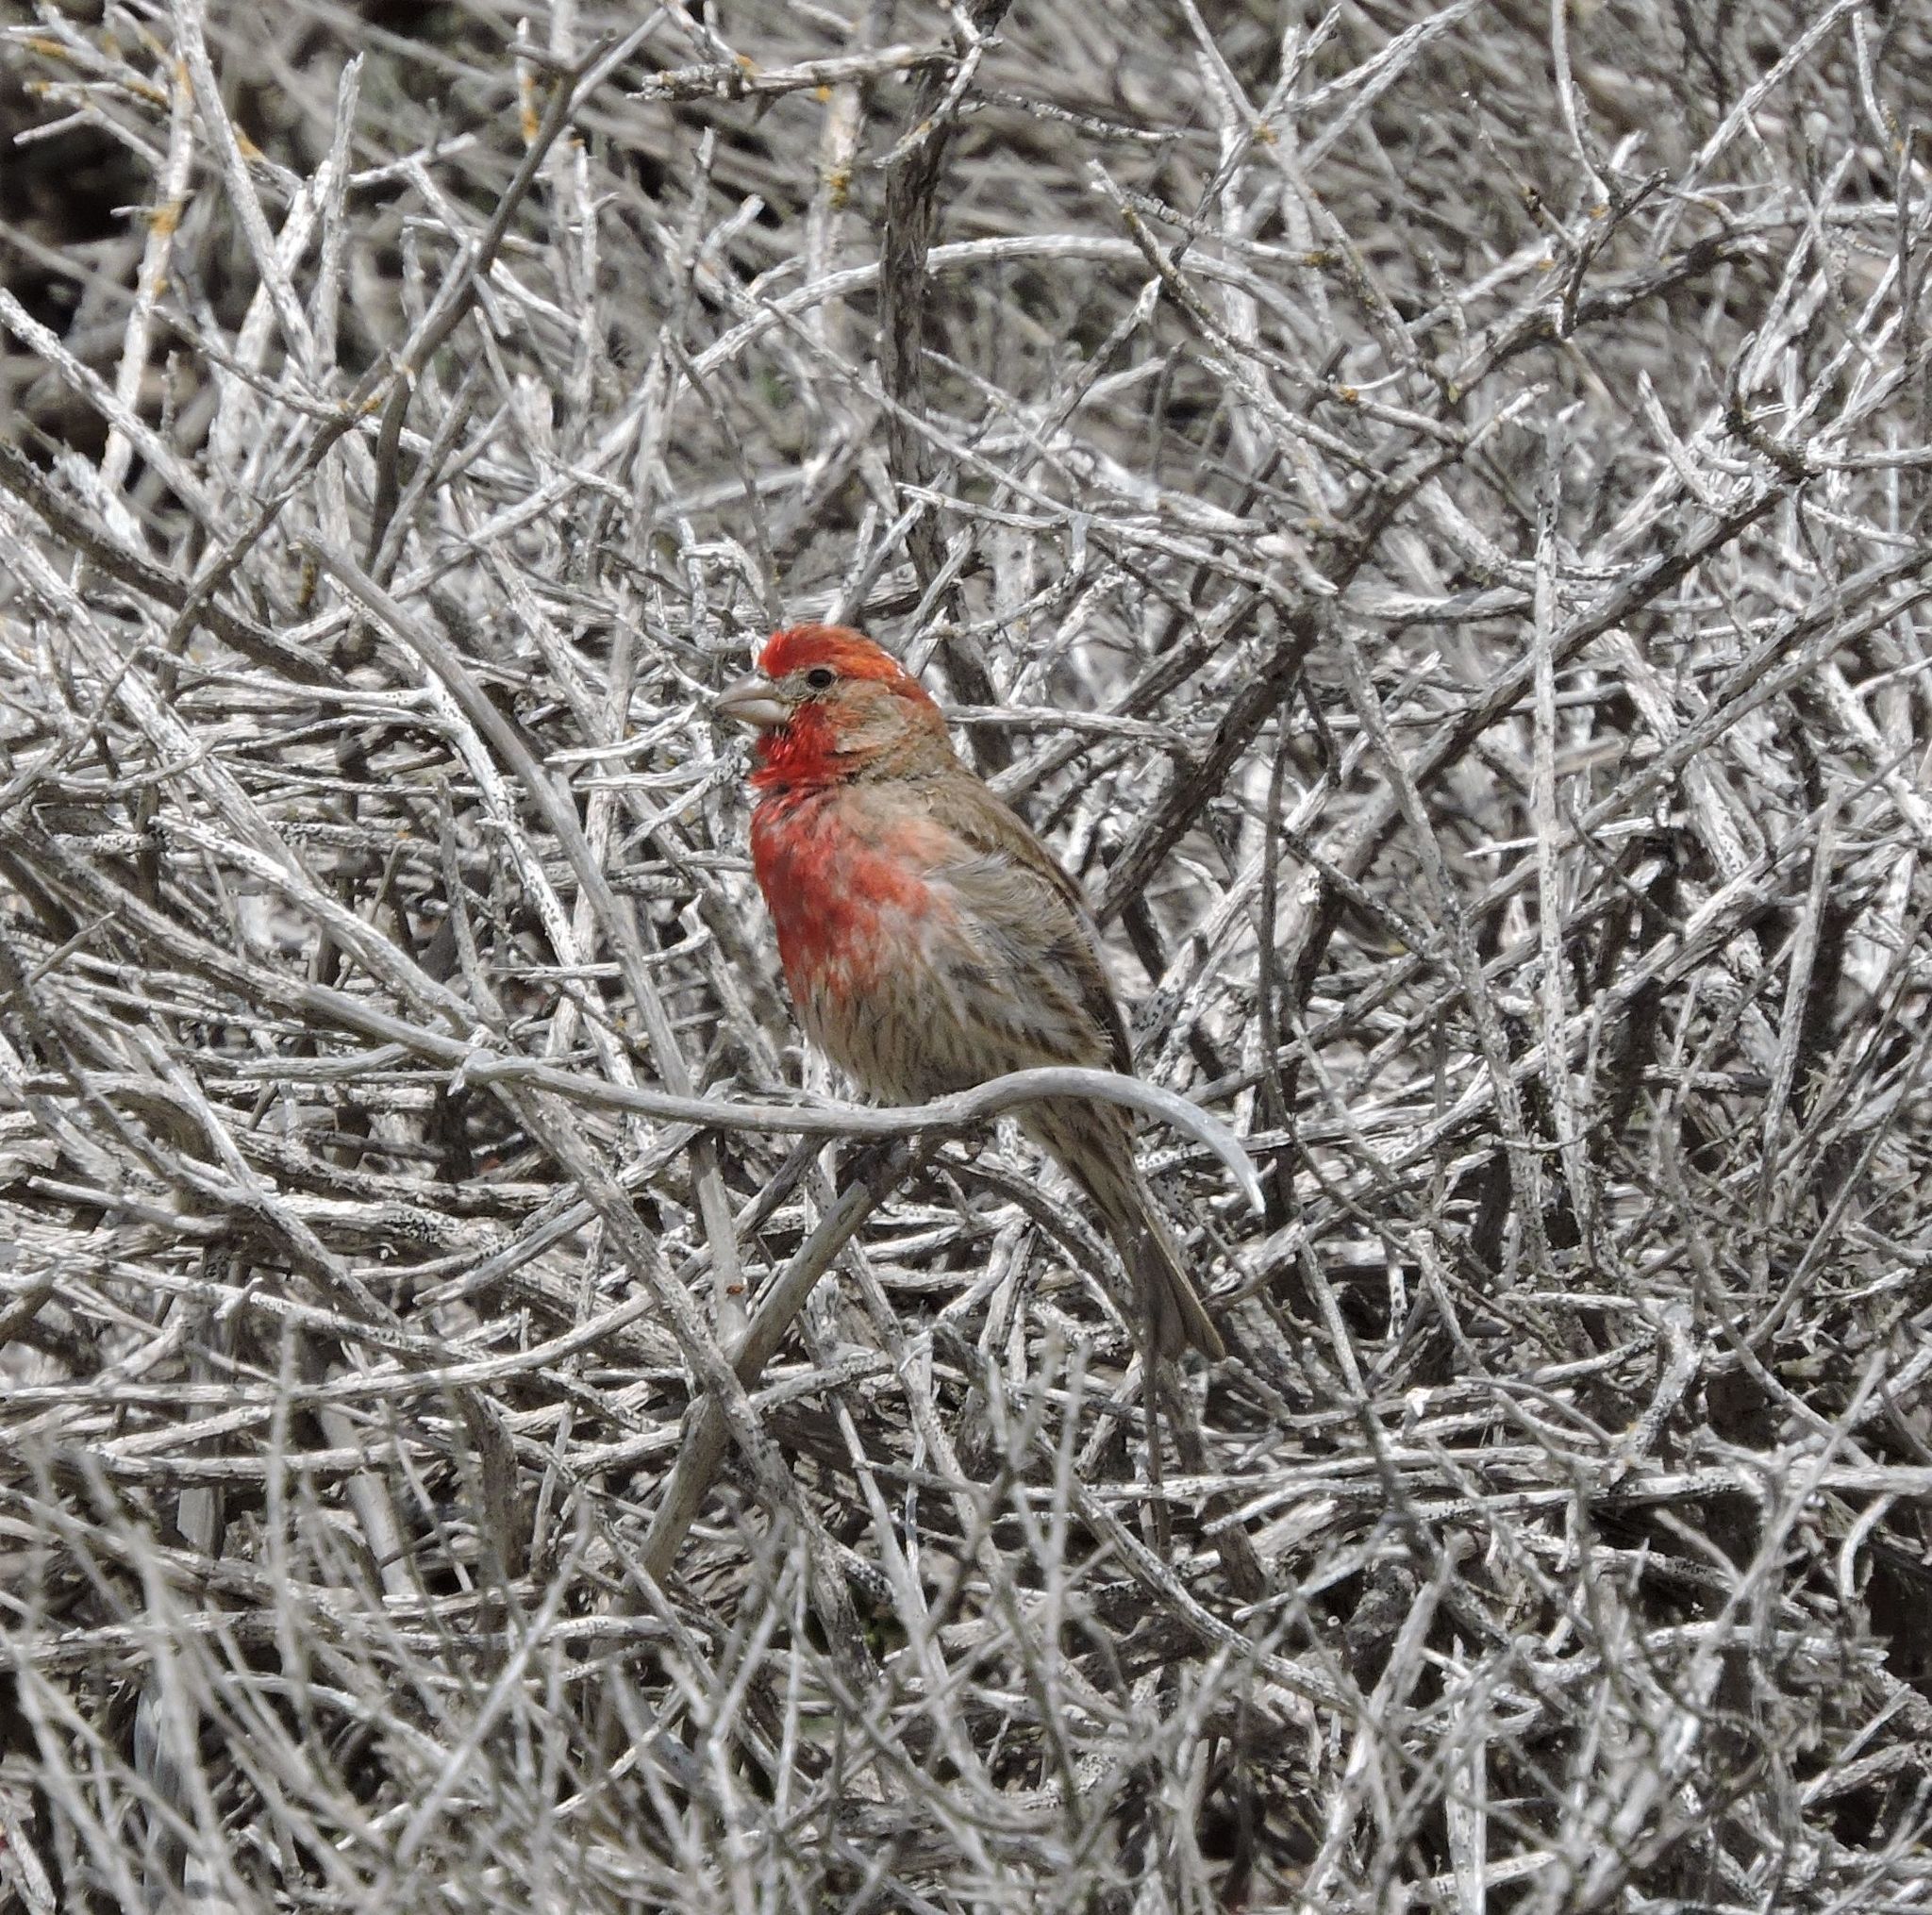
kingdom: Animalia
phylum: Chordata
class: Aves
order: Passeriformes
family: Fringillidae
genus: Haemorhous
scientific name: Haemorhous mexicanus
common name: House finch
